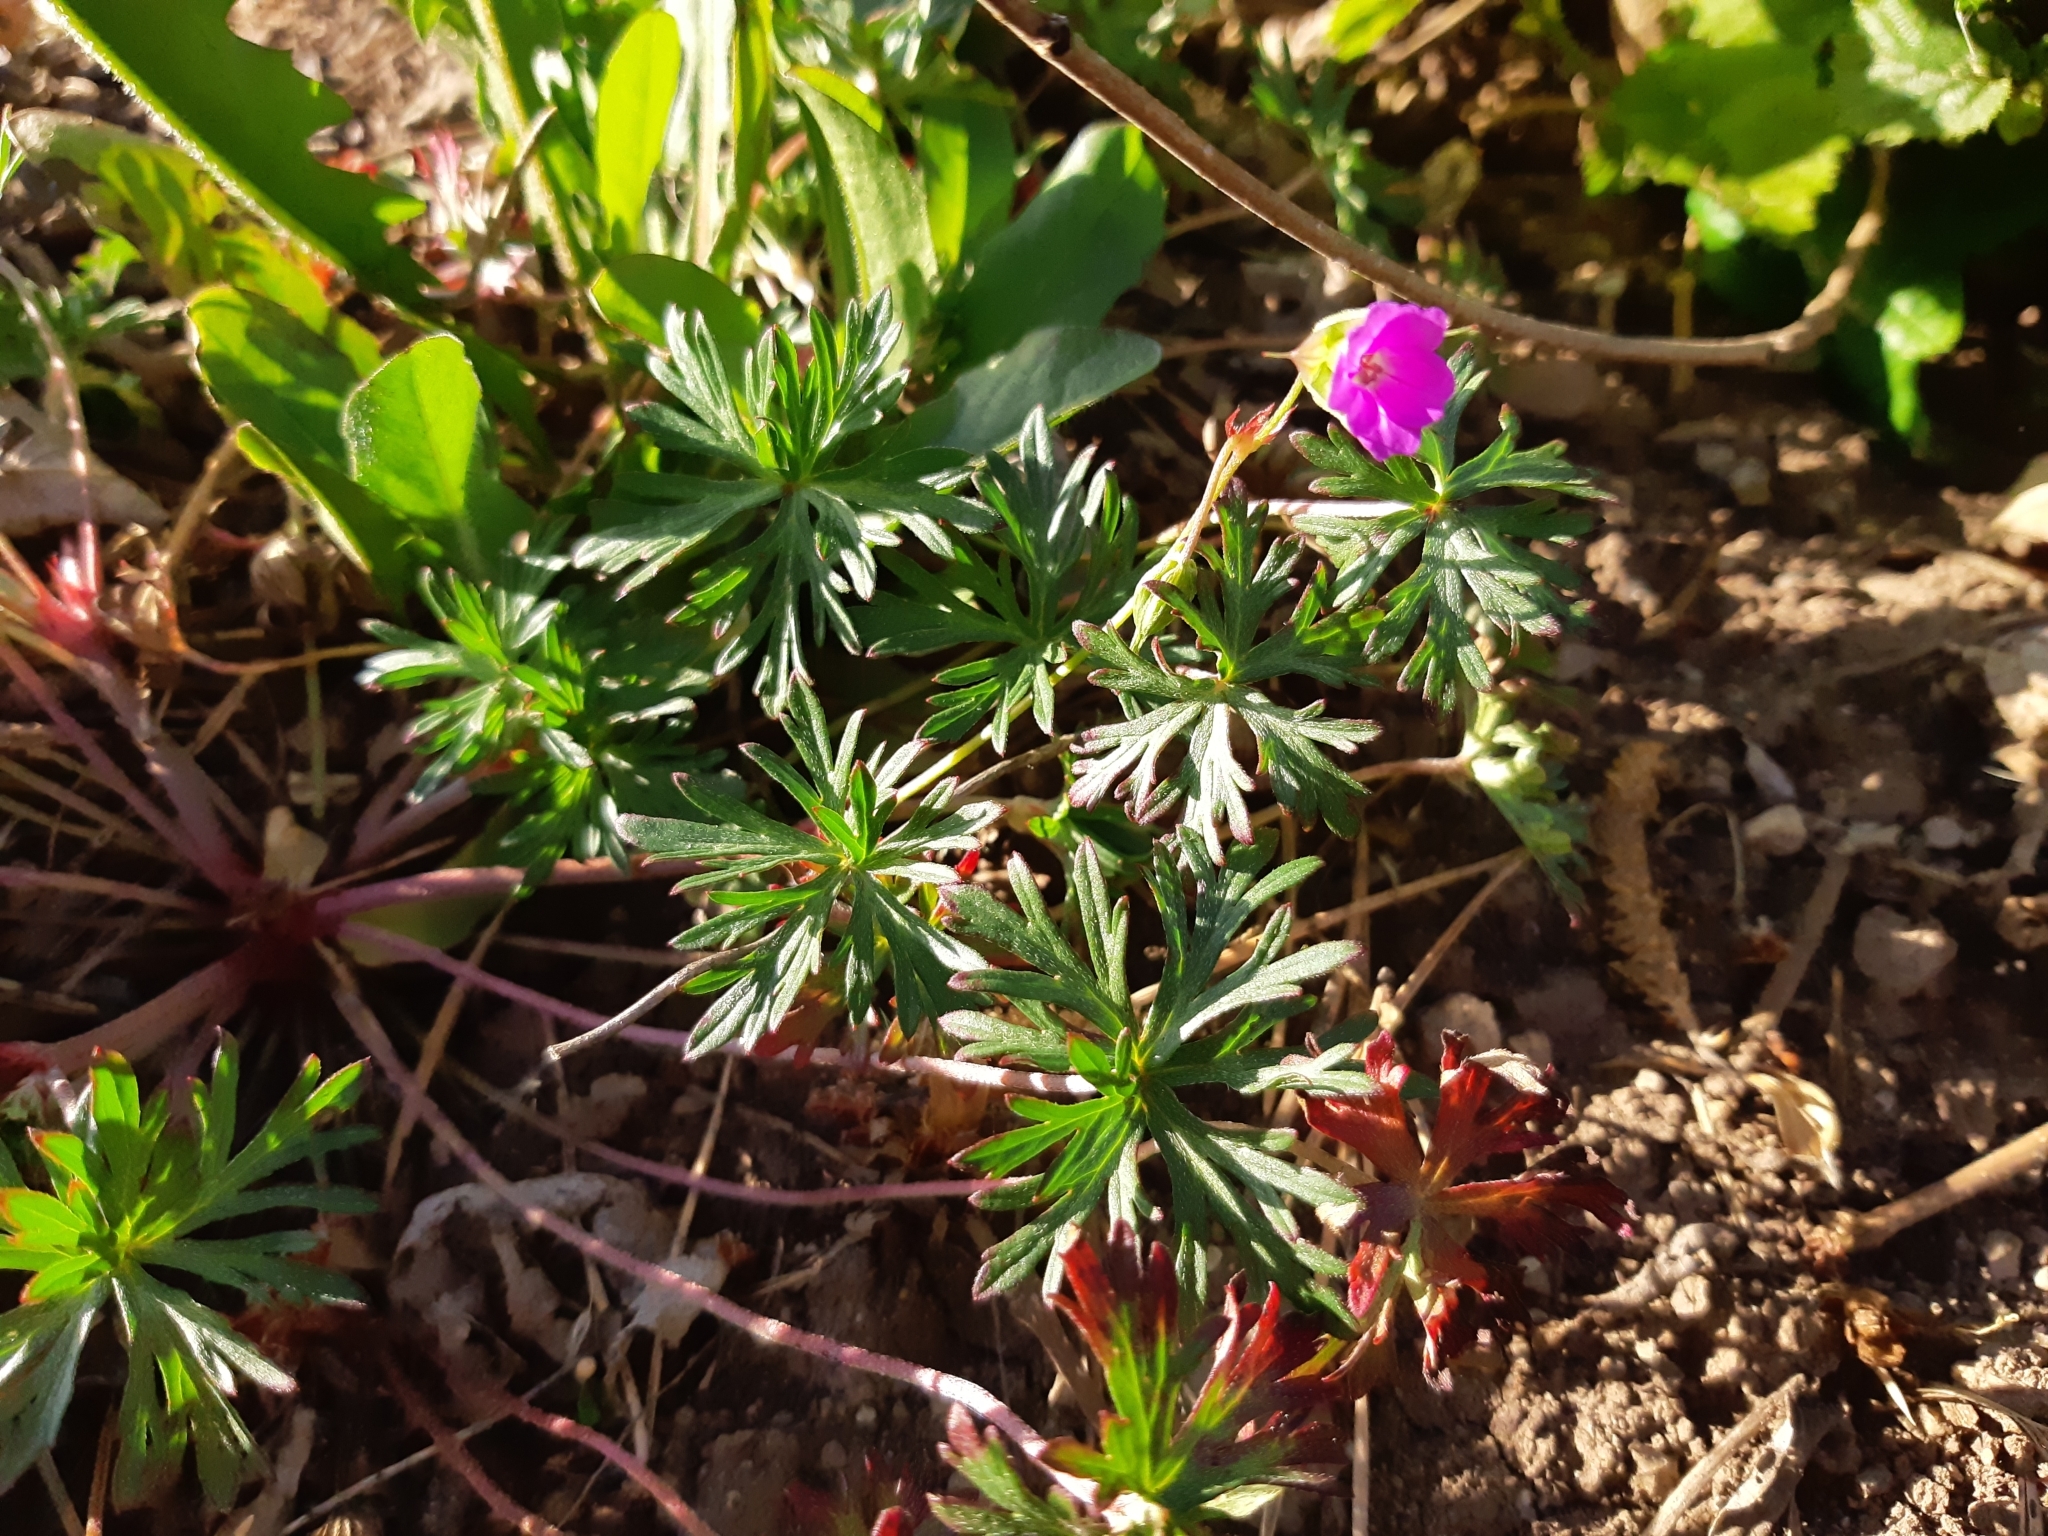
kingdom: Plantae
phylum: Tracheophyta
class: Magnoliopsida
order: Geraniales
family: Geraniaceae
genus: Geranium
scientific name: Geranium columbinum
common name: Long-stalked crane's-bill
